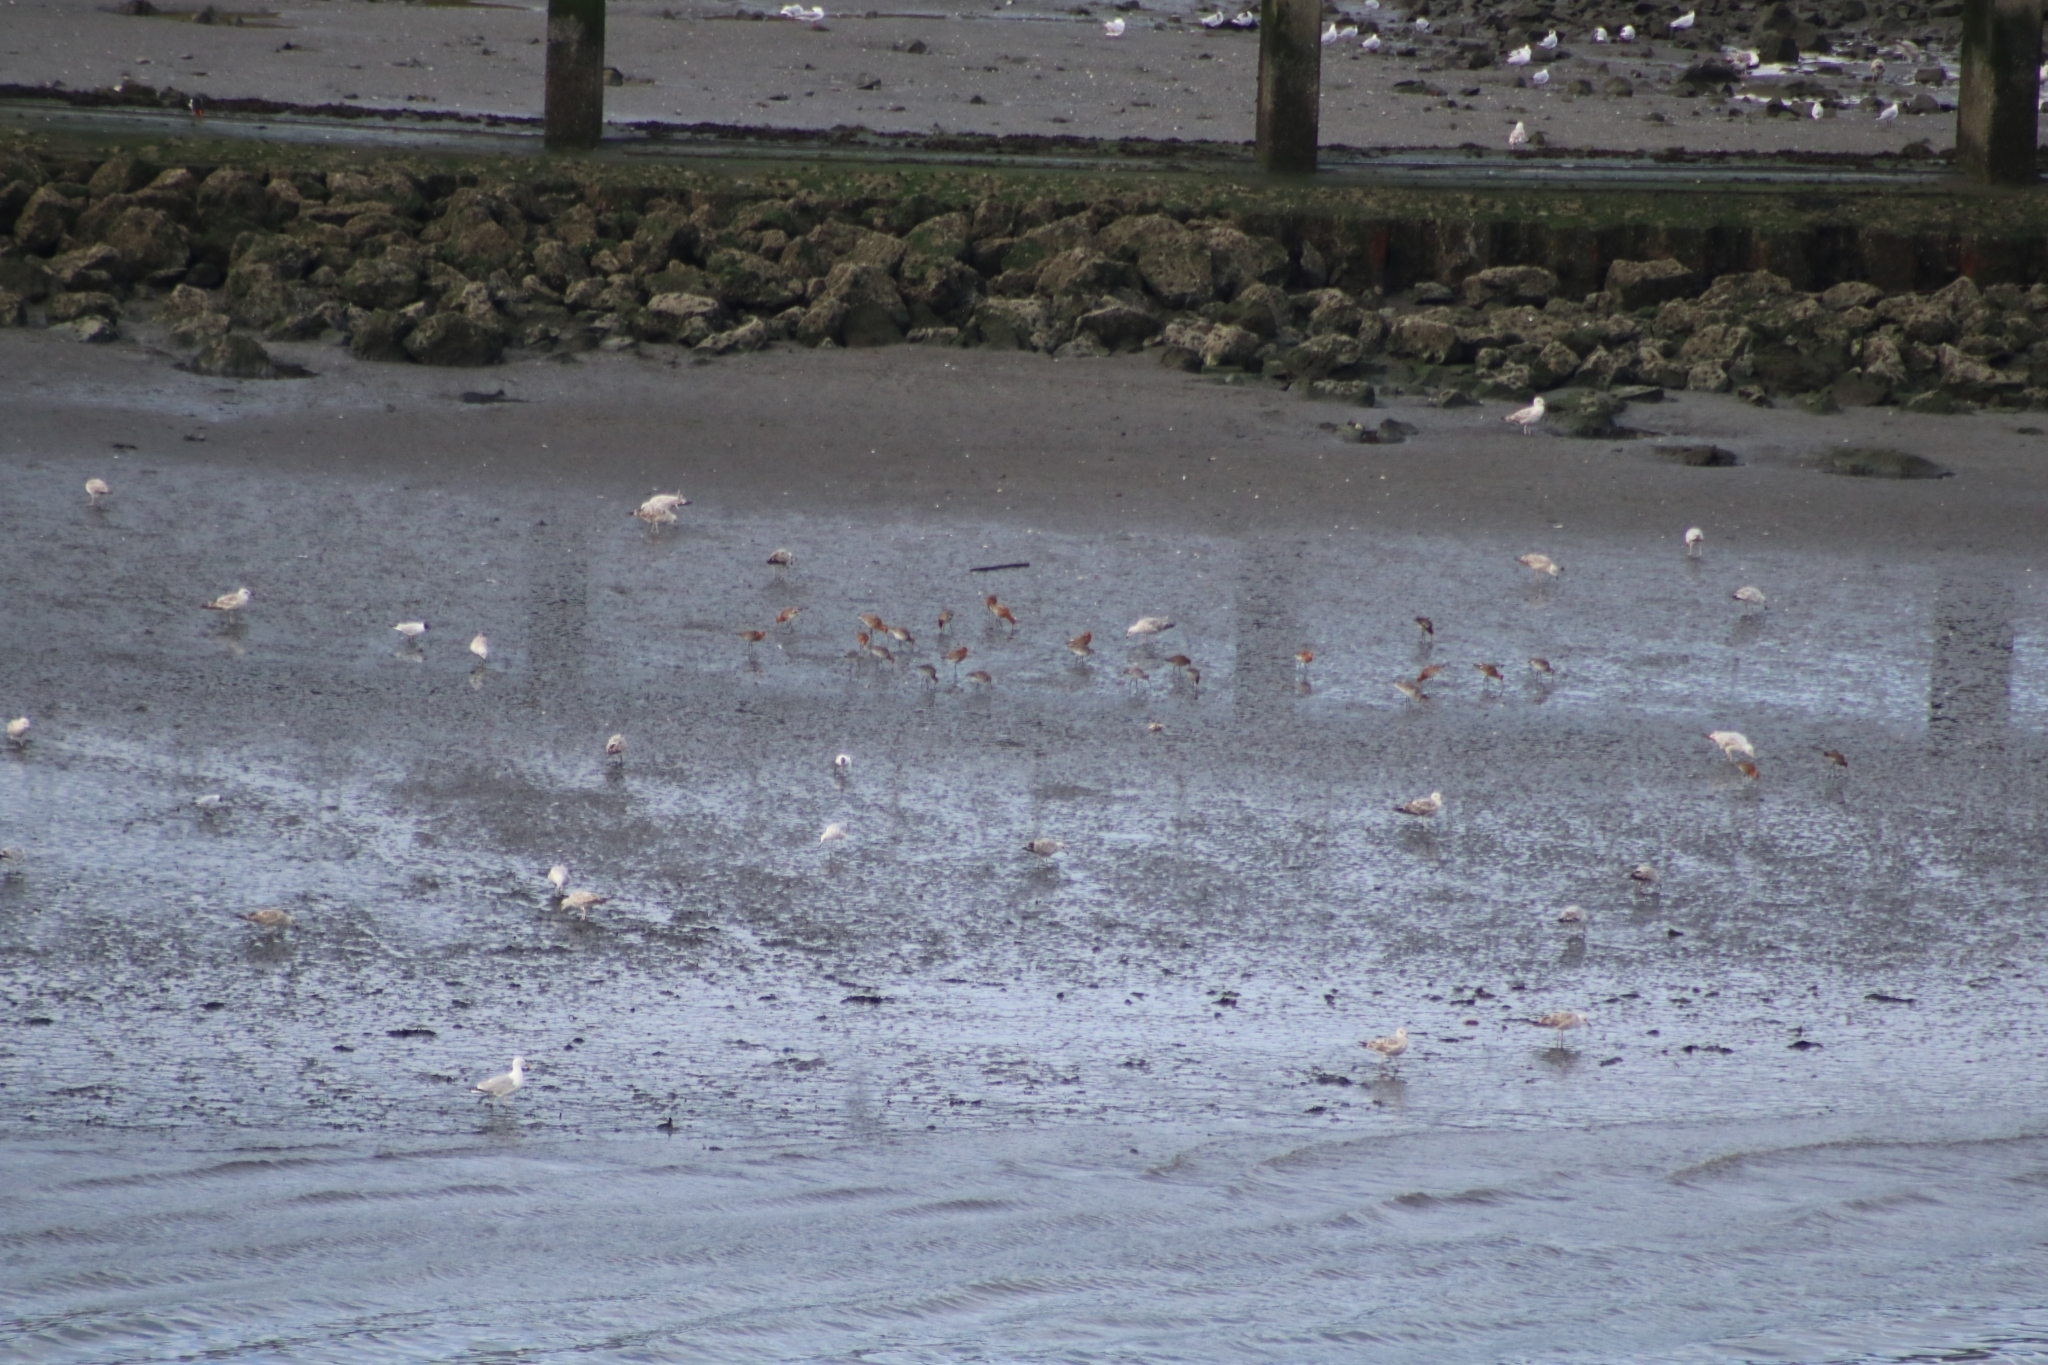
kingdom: Animalia
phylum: Chordata
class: Aves
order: Charadriiformes
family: Scolopacidae
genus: Limosa
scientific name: Limosa limosa
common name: Black-tailed godwit
